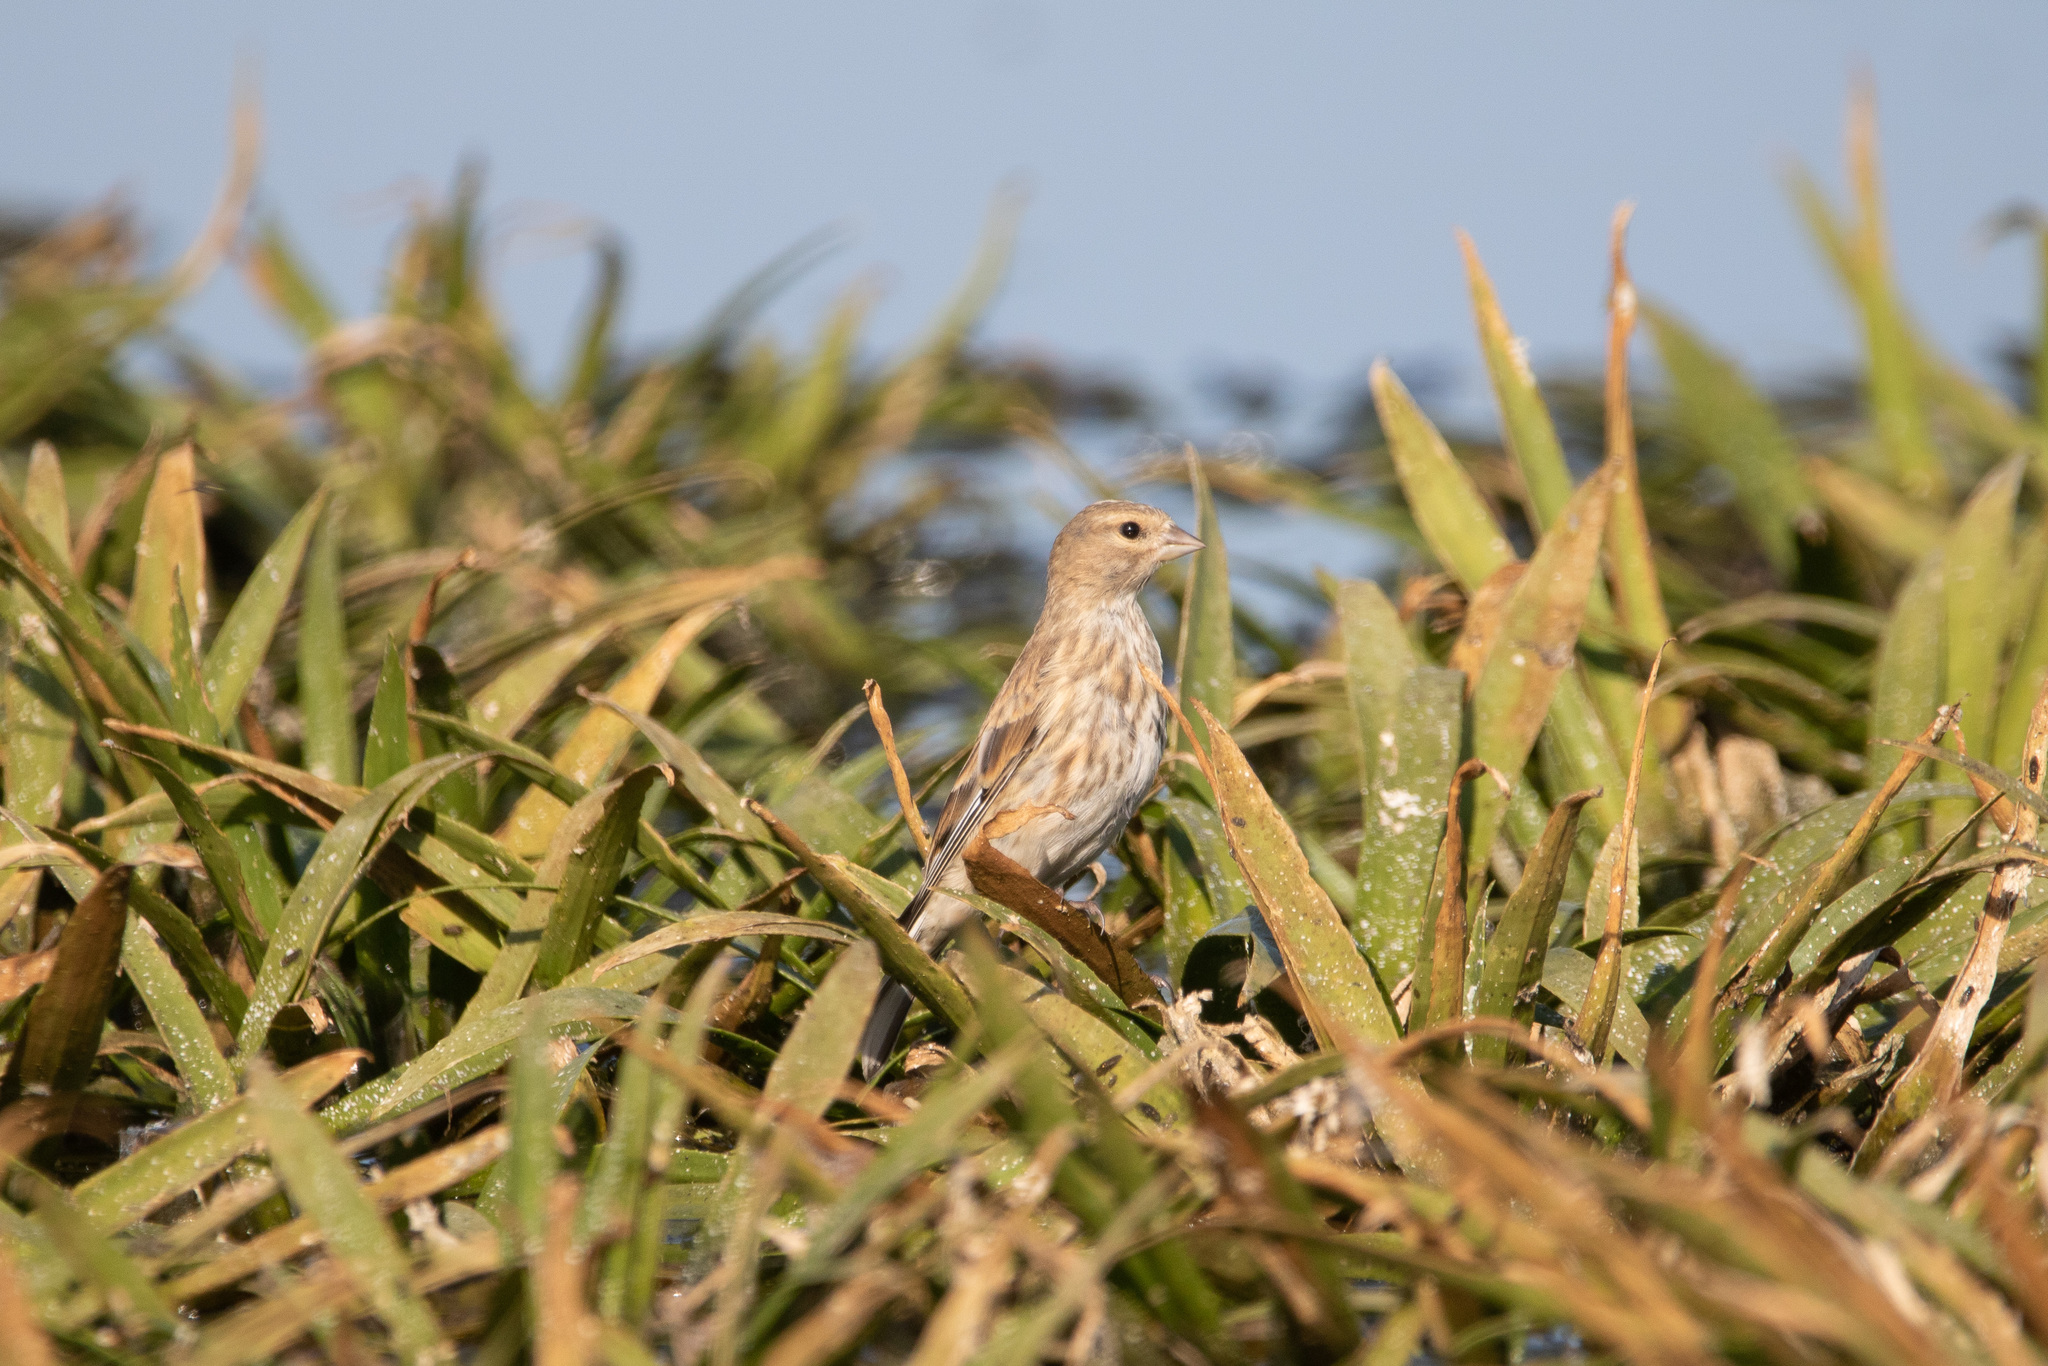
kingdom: Animalia
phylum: Chordata
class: Aves
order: Passeriformes
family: Fringillidae
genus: Linaria
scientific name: Linaria cannabina
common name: Common linnet
